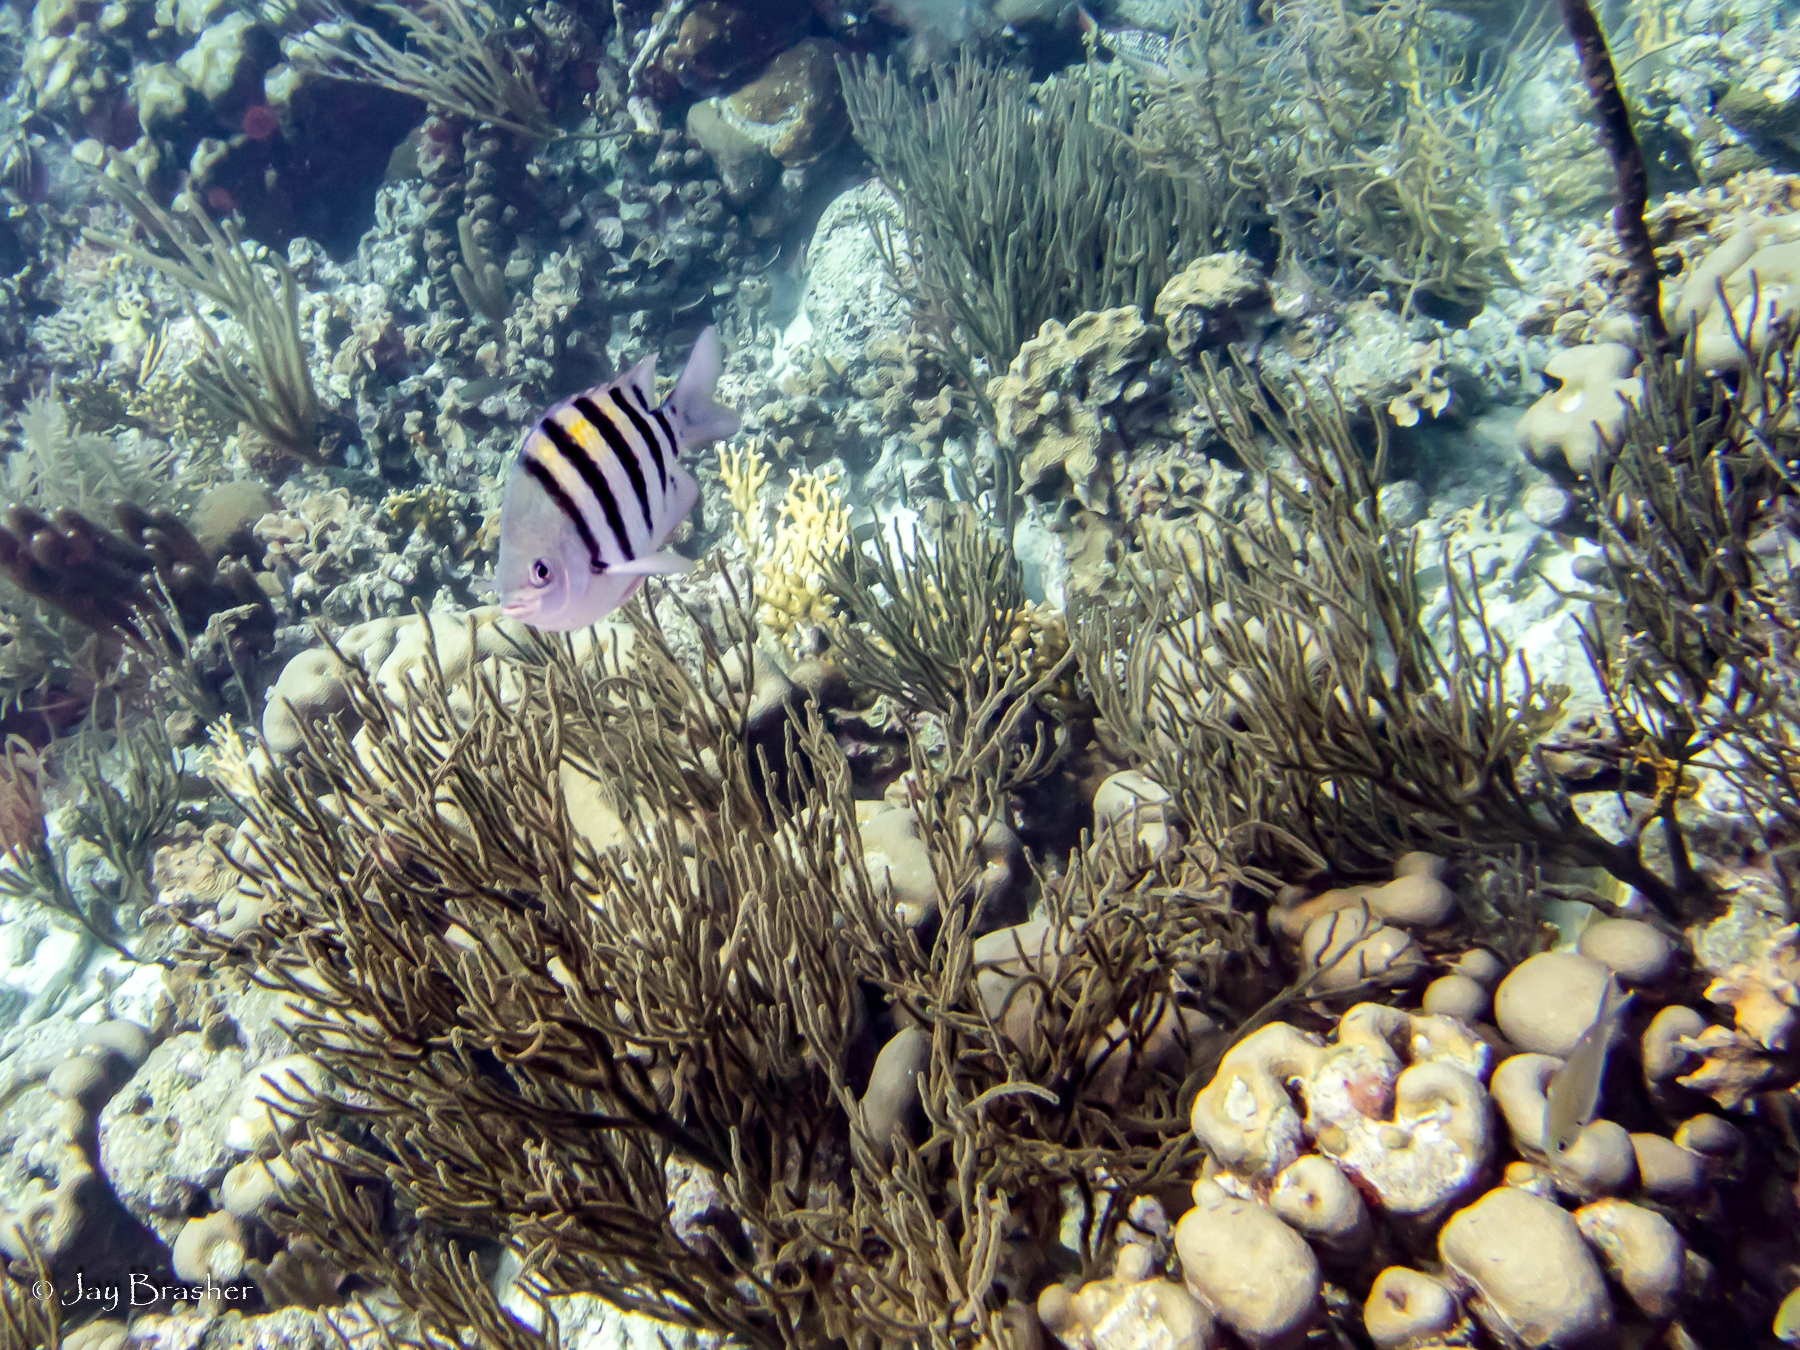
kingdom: Animalia
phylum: Chordata
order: Perciformes
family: Pomacentridae
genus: Abudefduf
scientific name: Abudefduf saxatilis
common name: Sergeant major
